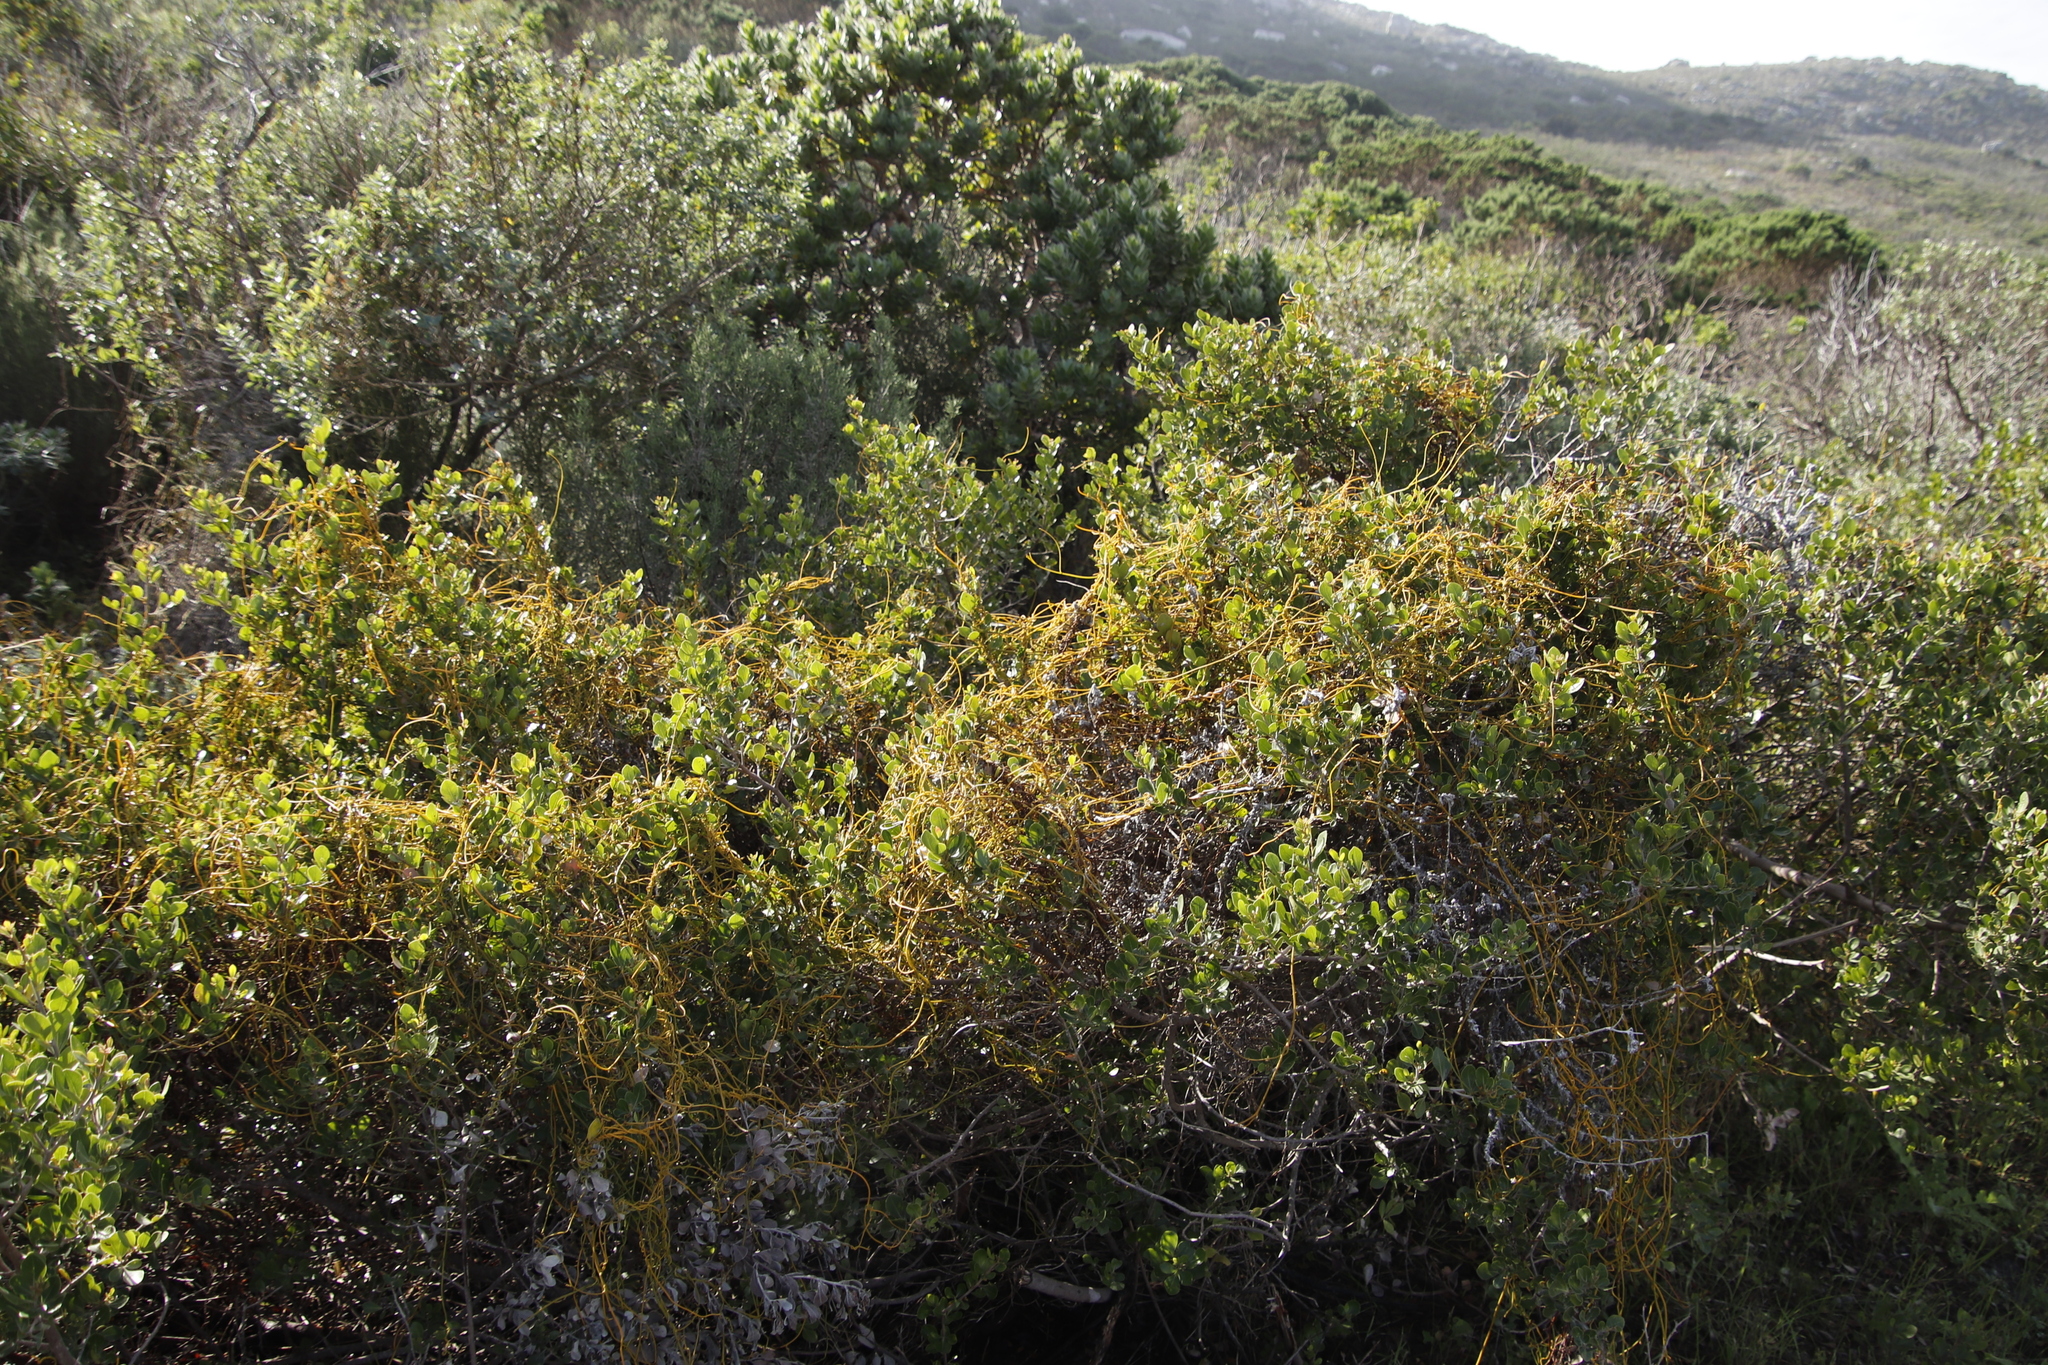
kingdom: Plantae
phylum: Tracheophyta
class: Magnoliopsida
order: Laurales
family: Lauraceae
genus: Cassytha
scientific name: Cassytha ciliolata
